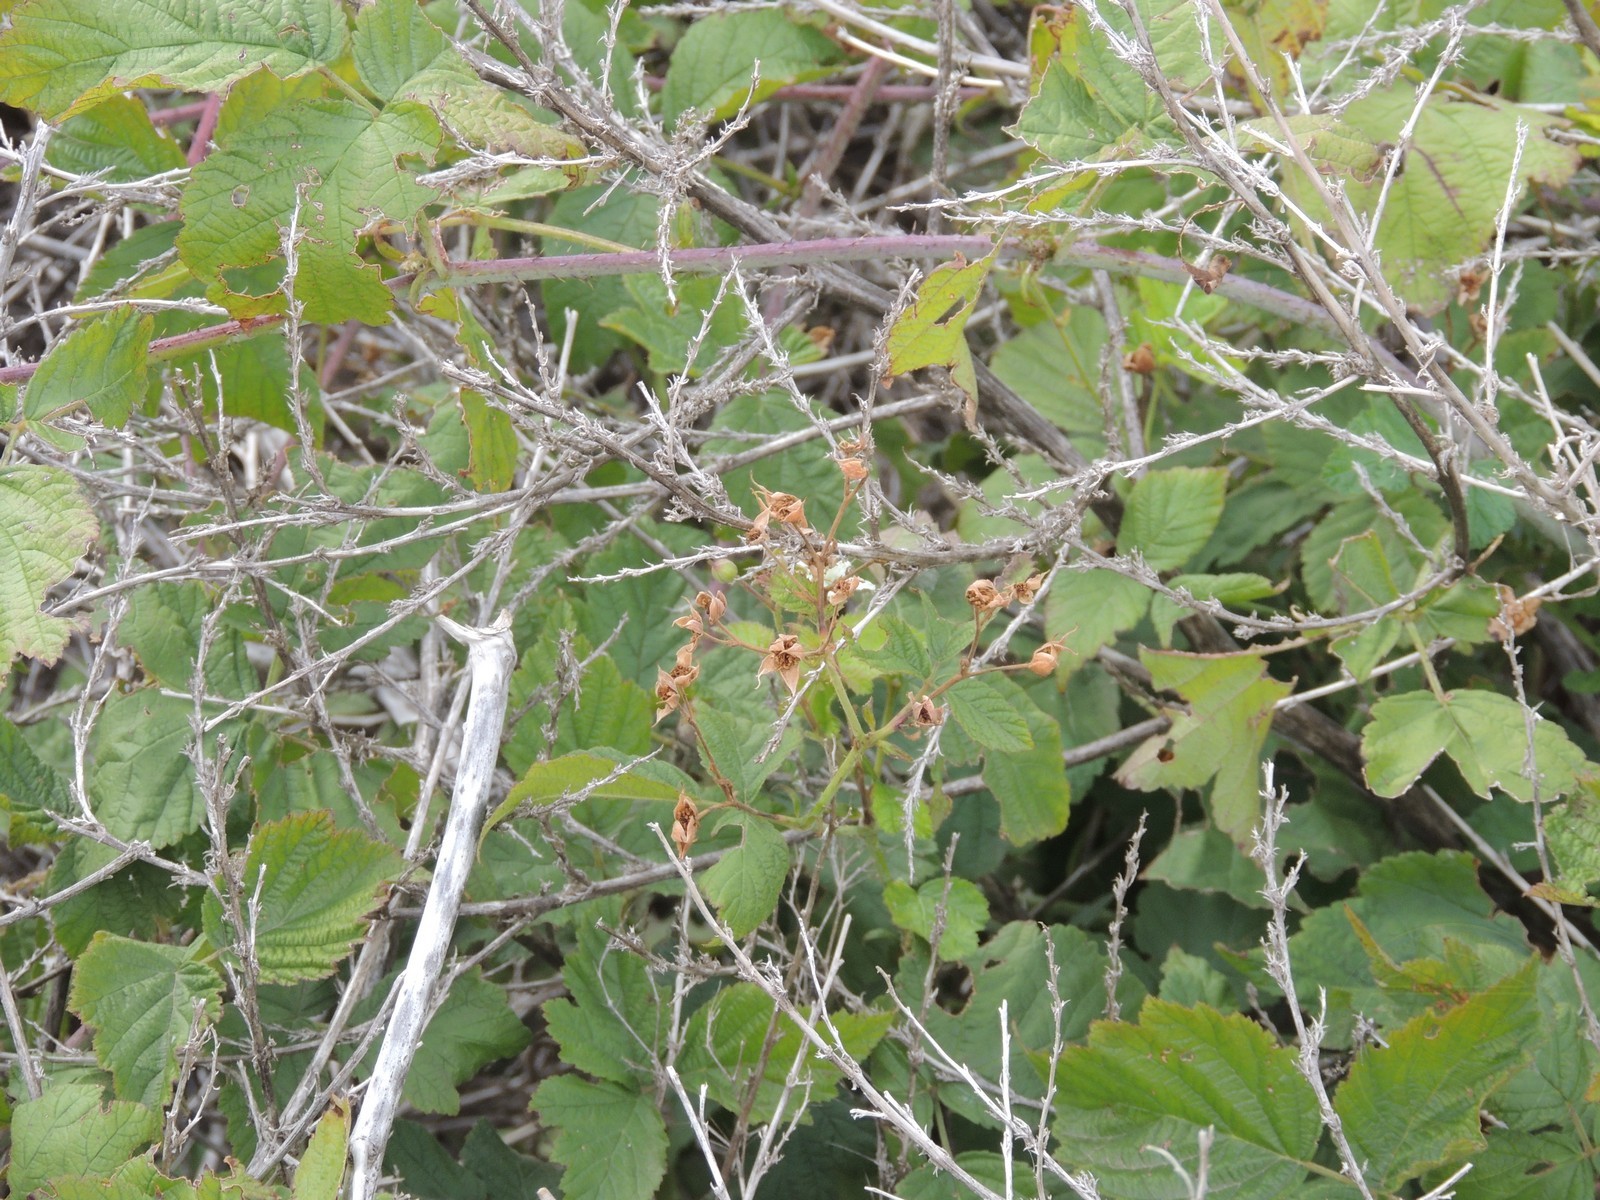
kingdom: Plantae
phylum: Tracheophyta
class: Magnoliopsida
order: Rosales
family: Rosaceae
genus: Rubus
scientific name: Rubus caesius
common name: Dewberry
